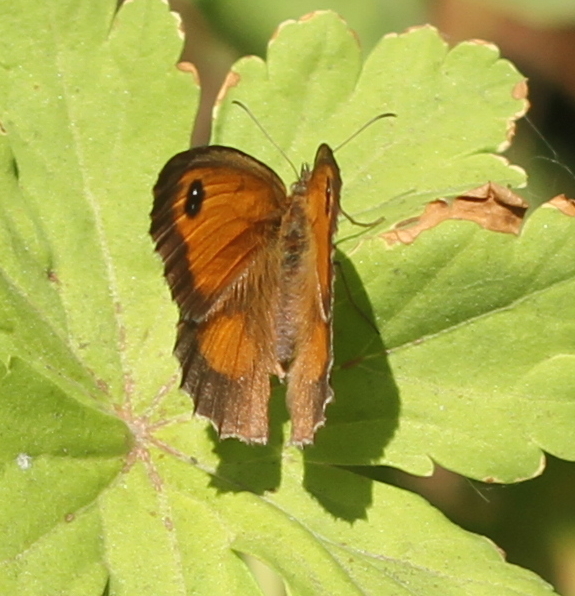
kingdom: Animalia
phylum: Arthropoda
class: Insecta
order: Lepidoptera
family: Nymphalidae
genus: Pyronia
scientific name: Pyronia tithonus
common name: Gatekeeper
